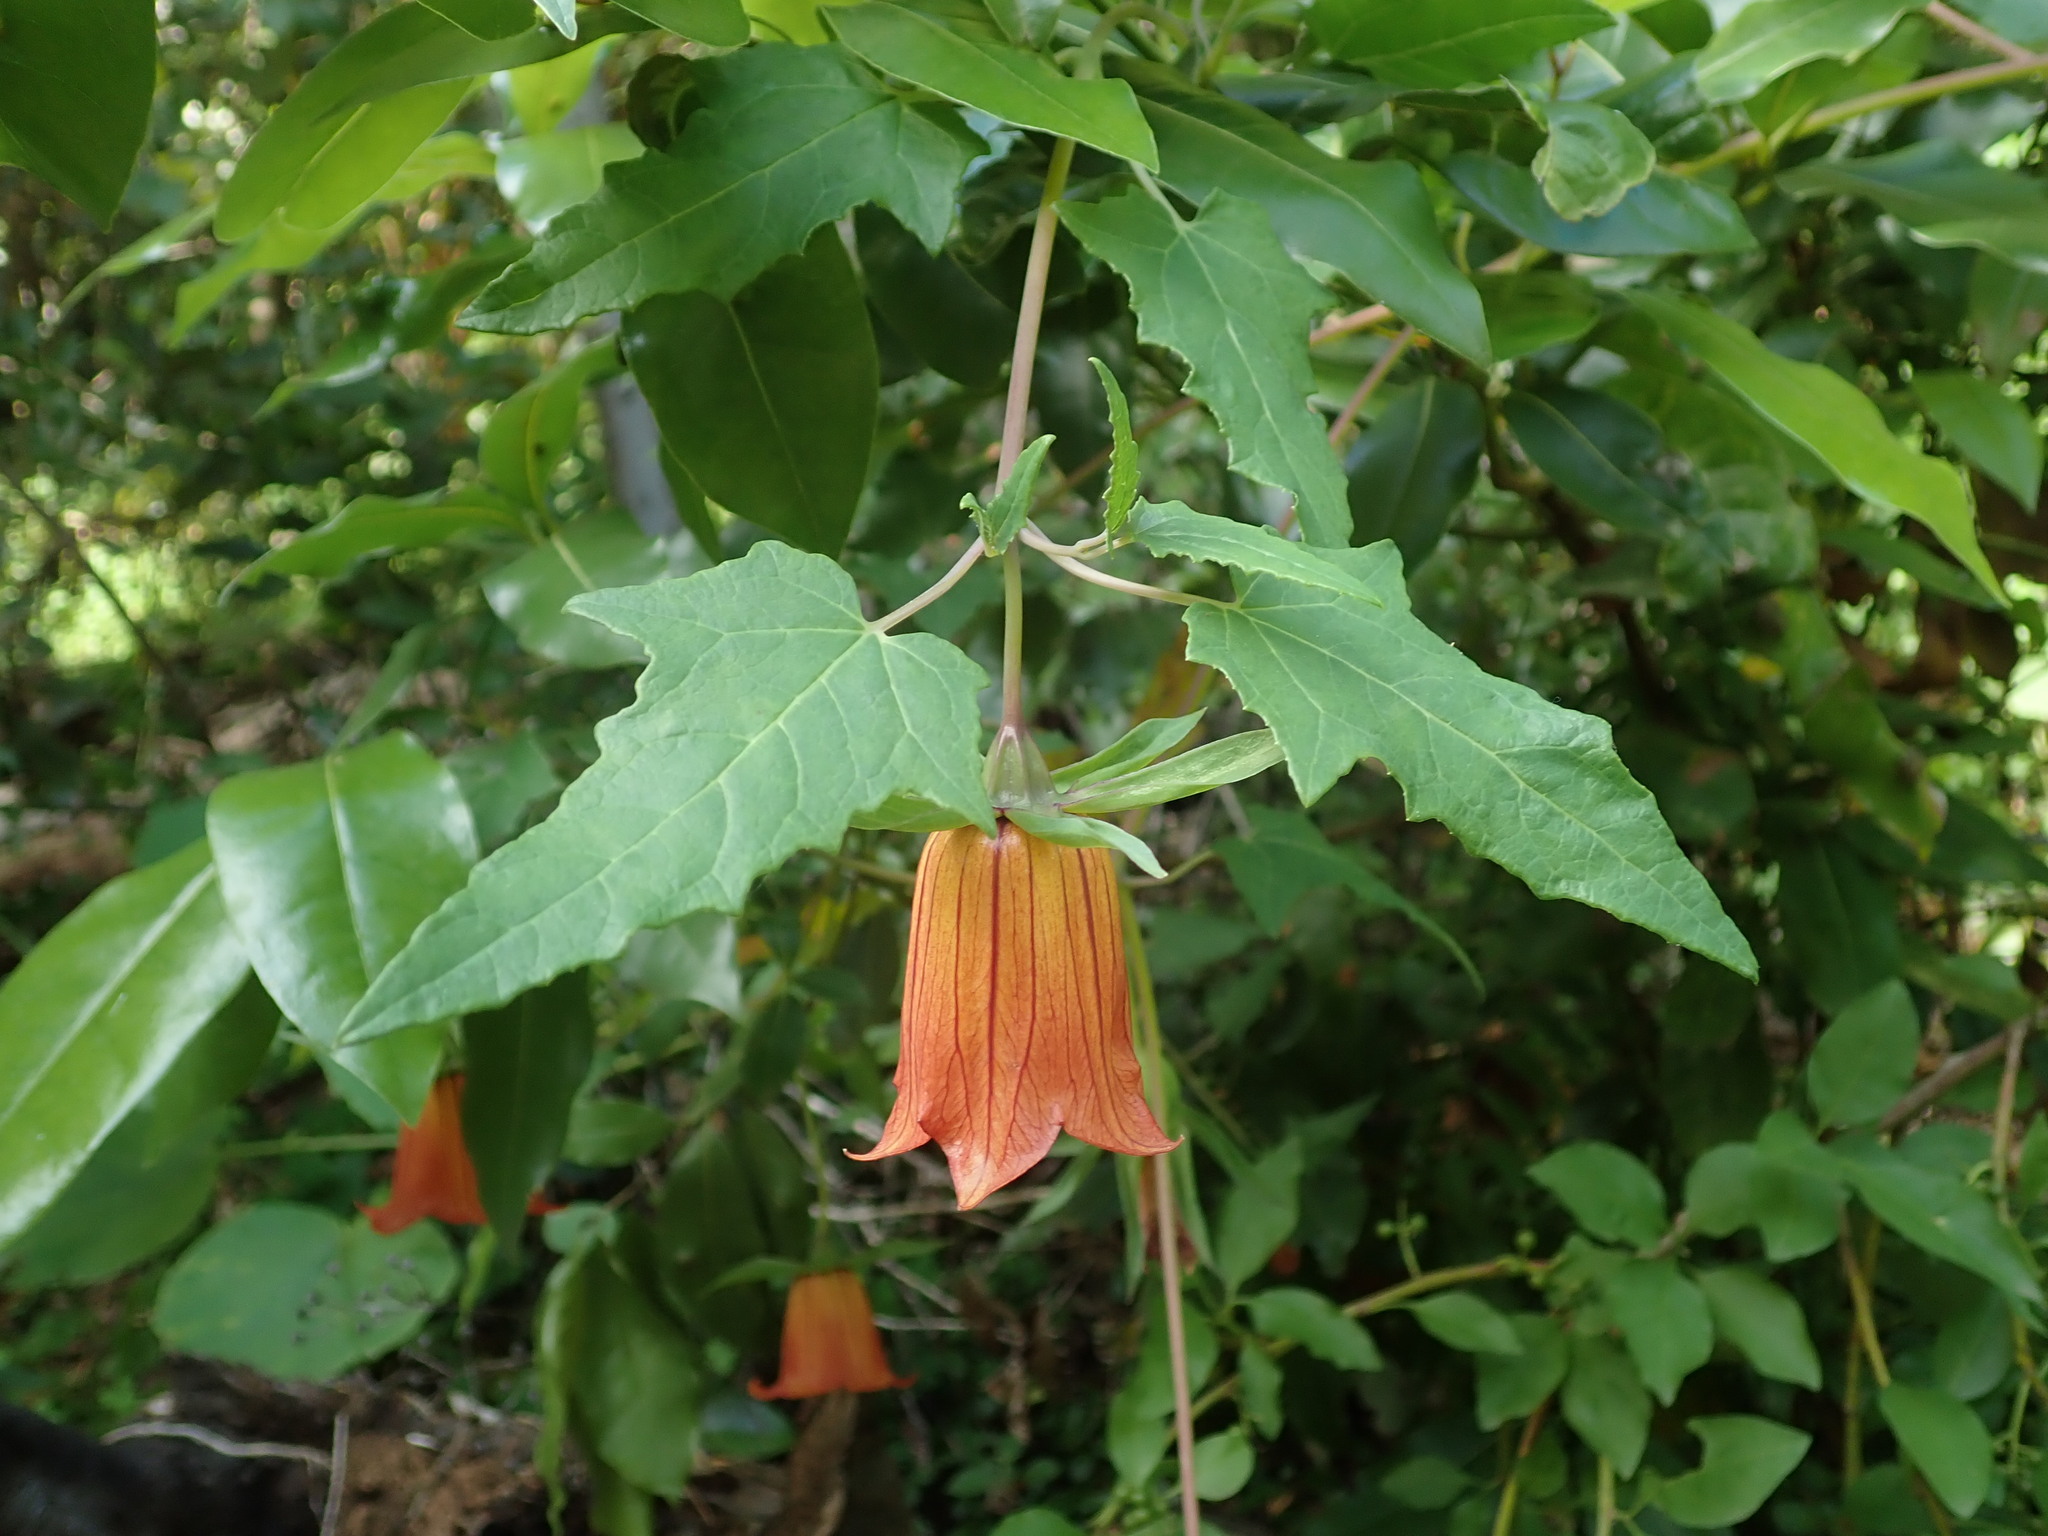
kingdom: Plantae
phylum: Tracheophyta
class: Magnoliopsida
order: Asterales
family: Campanulaceae
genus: Canarina
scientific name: Canarina canariensis
